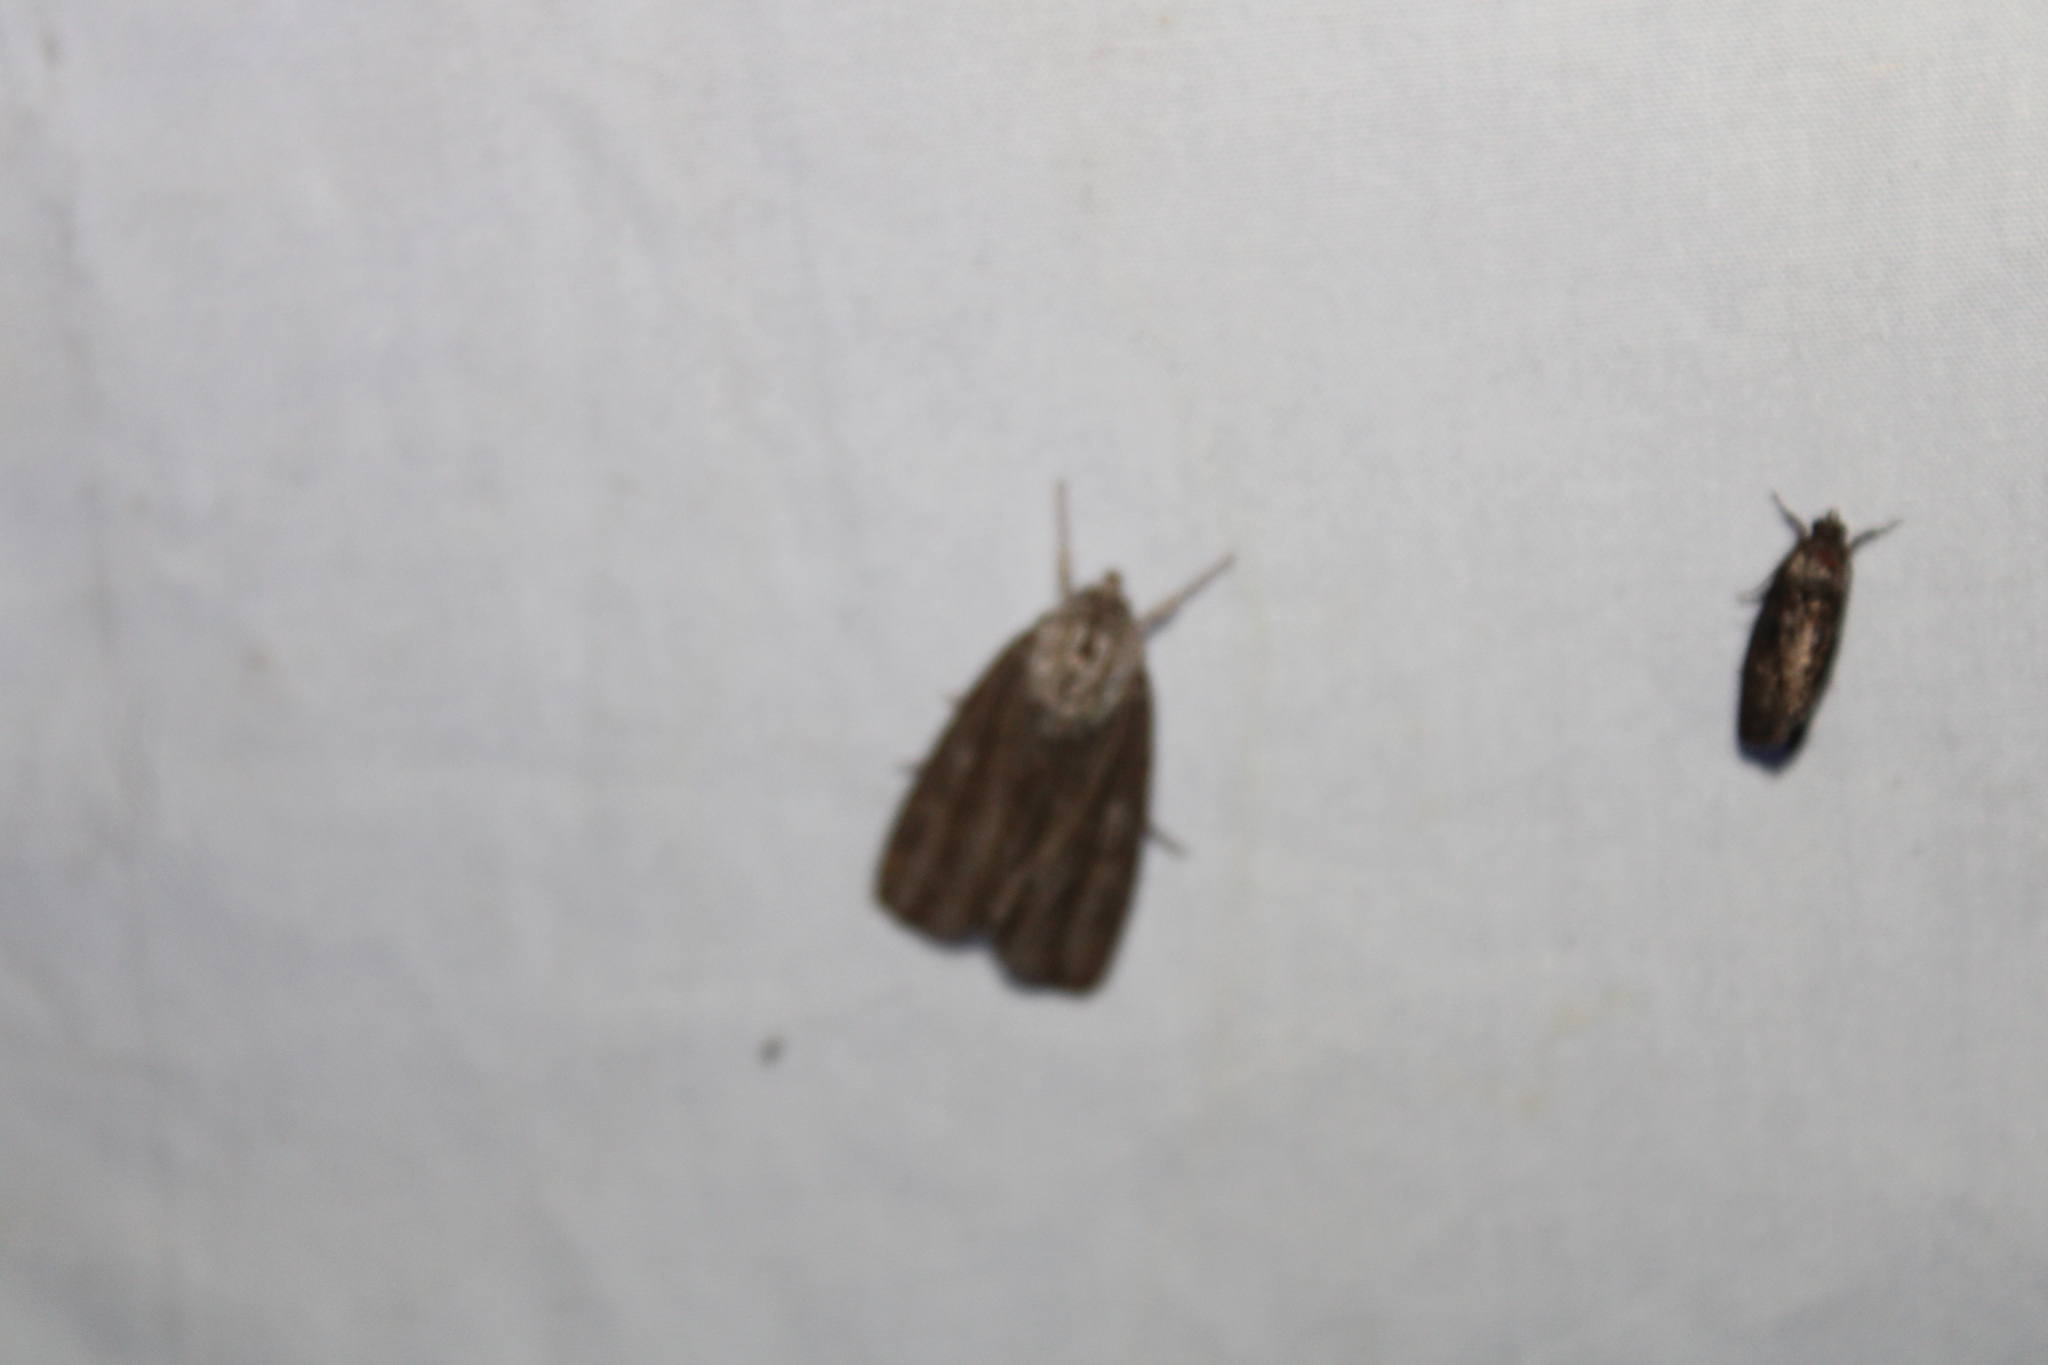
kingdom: Animalia
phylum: Arthropoda
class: Insecta
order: Lepidoptera
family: Noctuidae
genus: Acronicta
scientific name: Acronicta lithospila
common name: Streaked dagger
